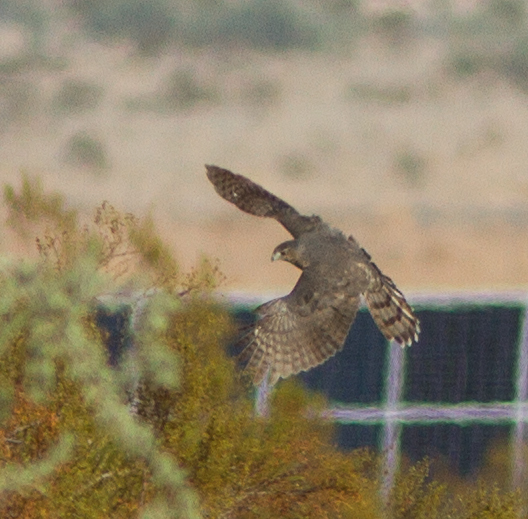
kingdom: Animalia
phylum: Chordata
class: Aves
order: Accipitriformes
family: Accipitridae
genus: Accipiter
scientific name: Accipiter cooperii
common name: Cooper's hawk
